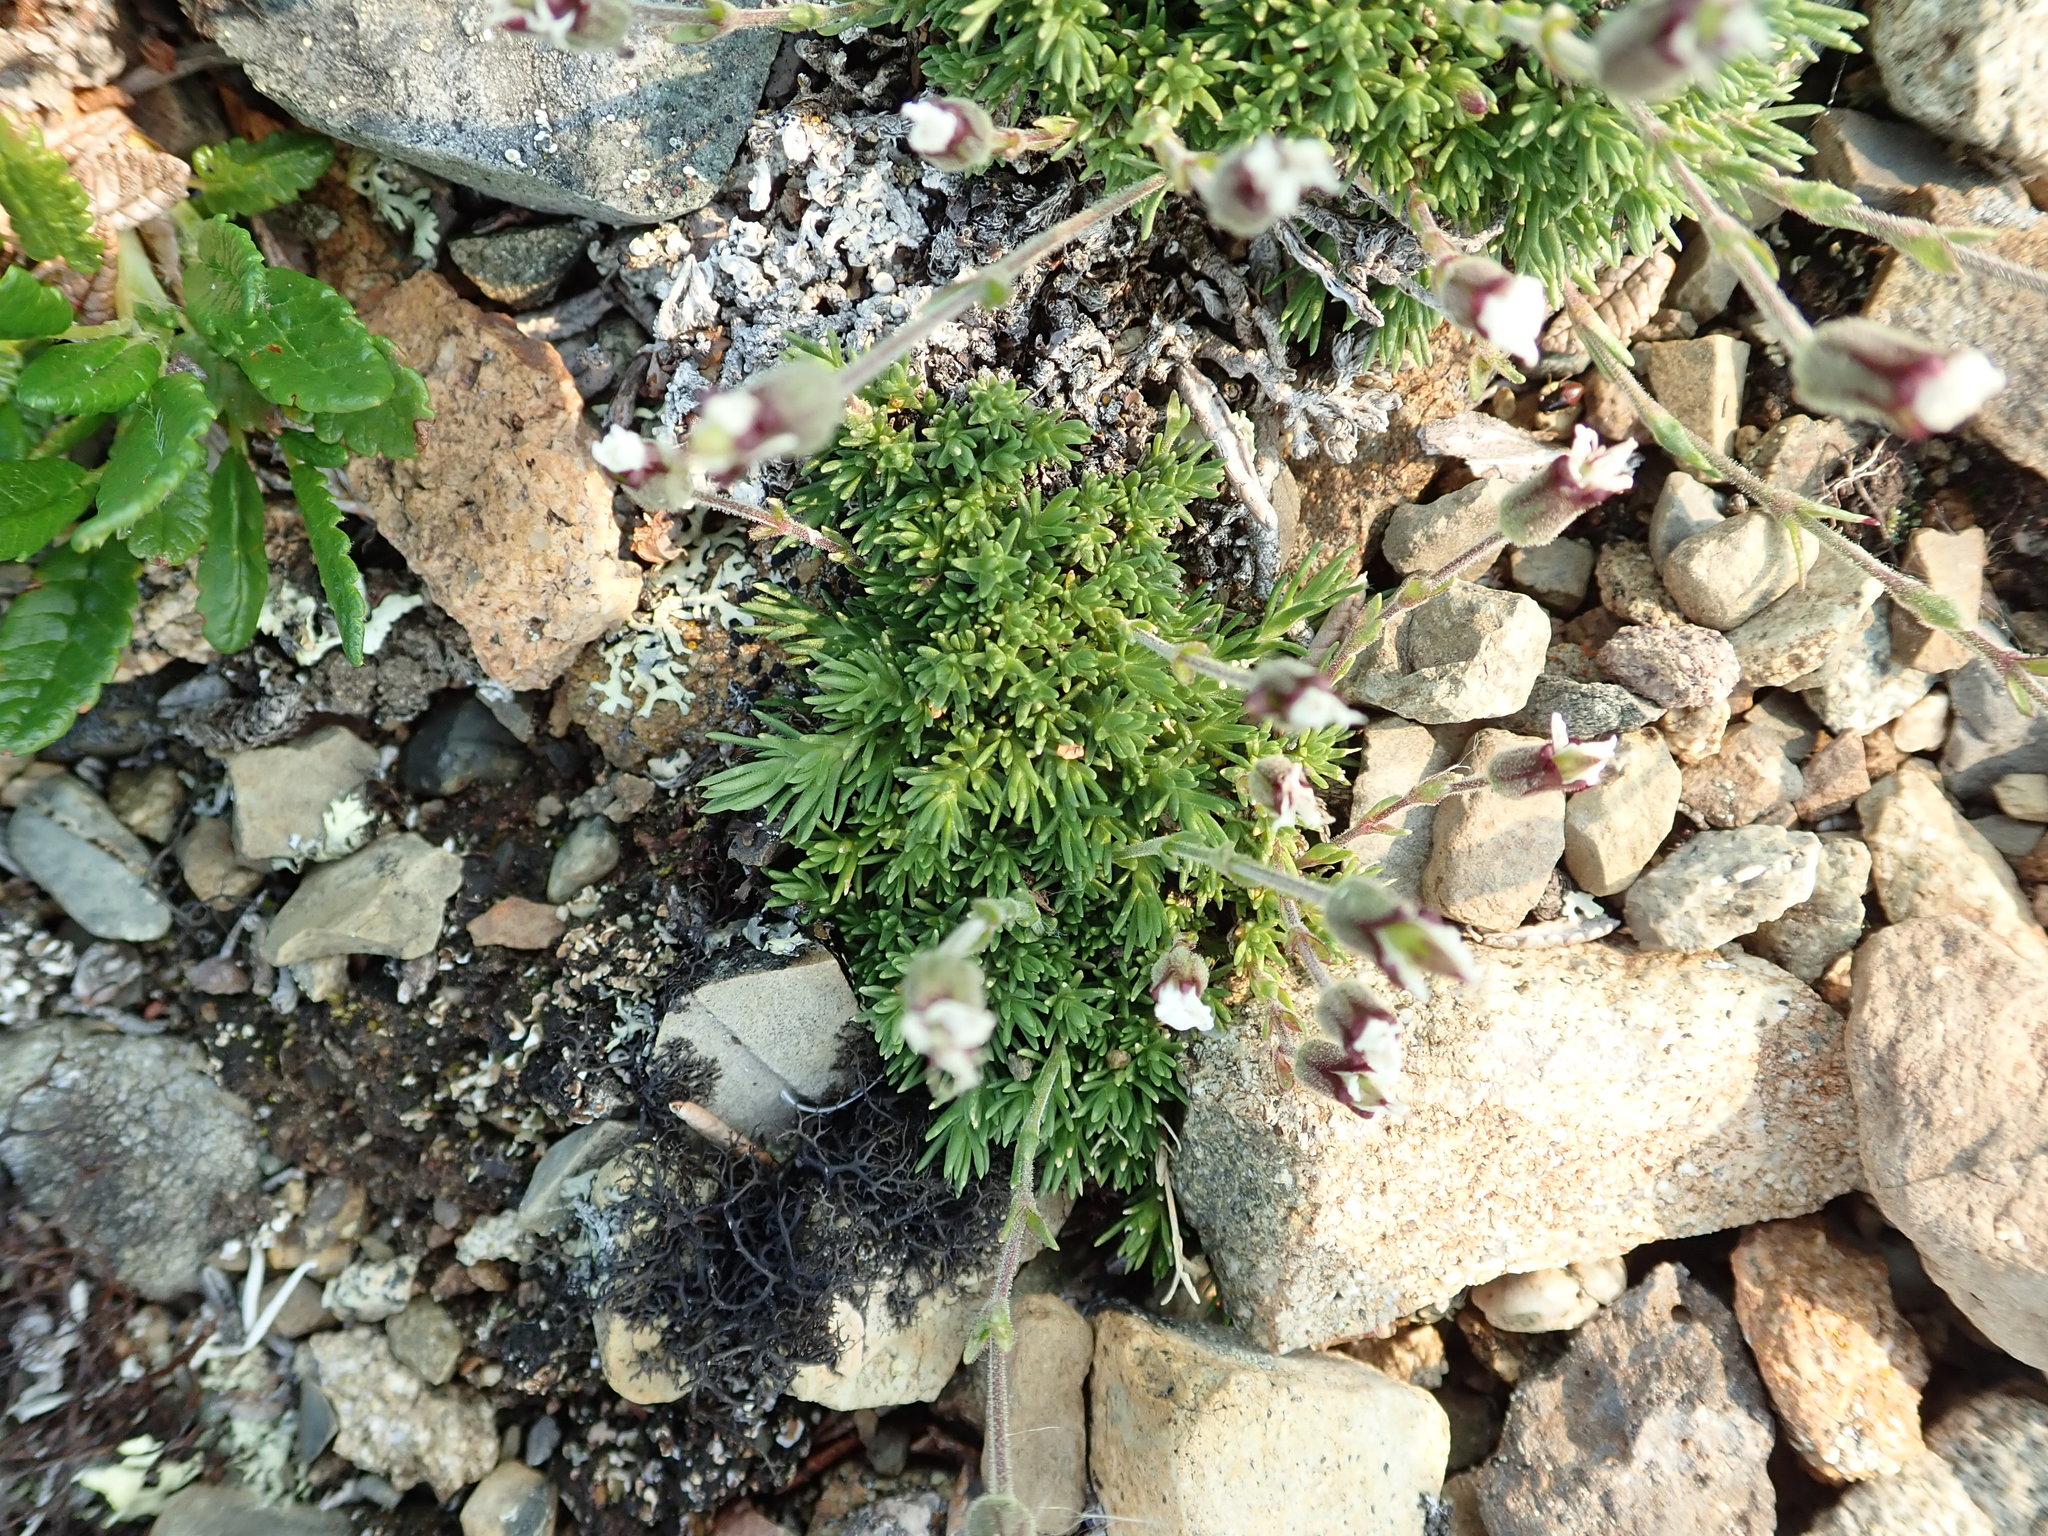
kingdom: Plantae
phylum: Tracheophyta
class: Magnoliopsida
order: Caryophyllales
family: Caryophyllaceae
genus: Cherleria
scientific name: Cherleria obtusiloba
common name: Alpine stitchwort
